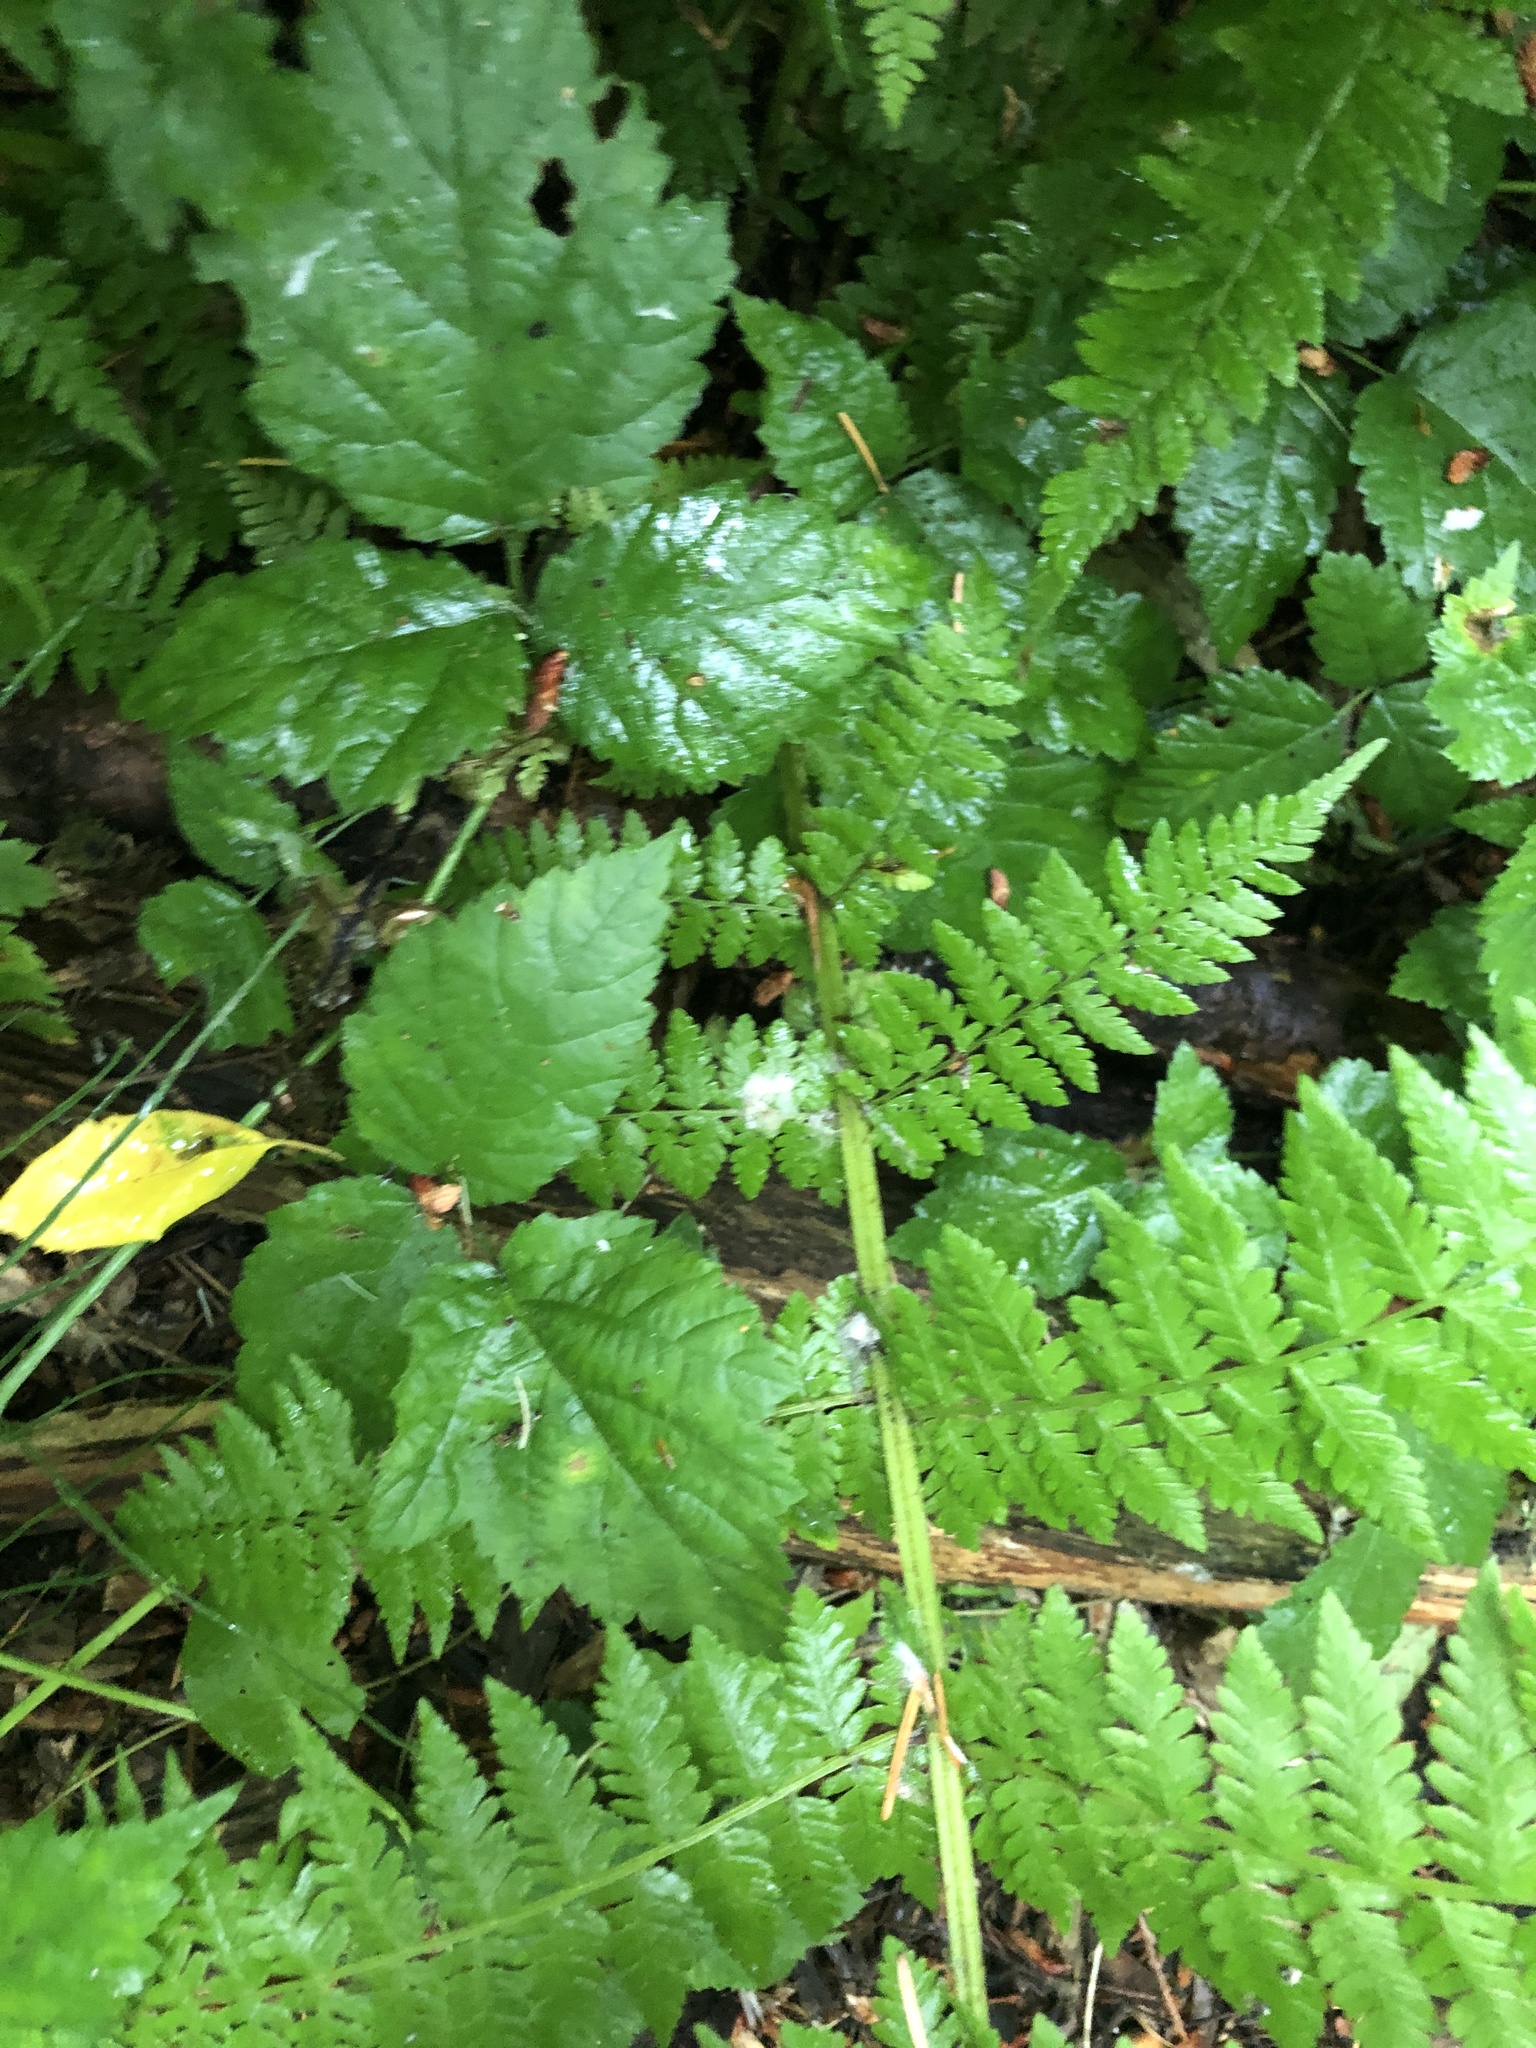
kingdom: Plantae
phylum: Tracheophyta
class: Polypodiopsida
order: Polypodiales
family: Athyriaceae
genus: Athyrium
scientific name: Athyrium cyclosorum
